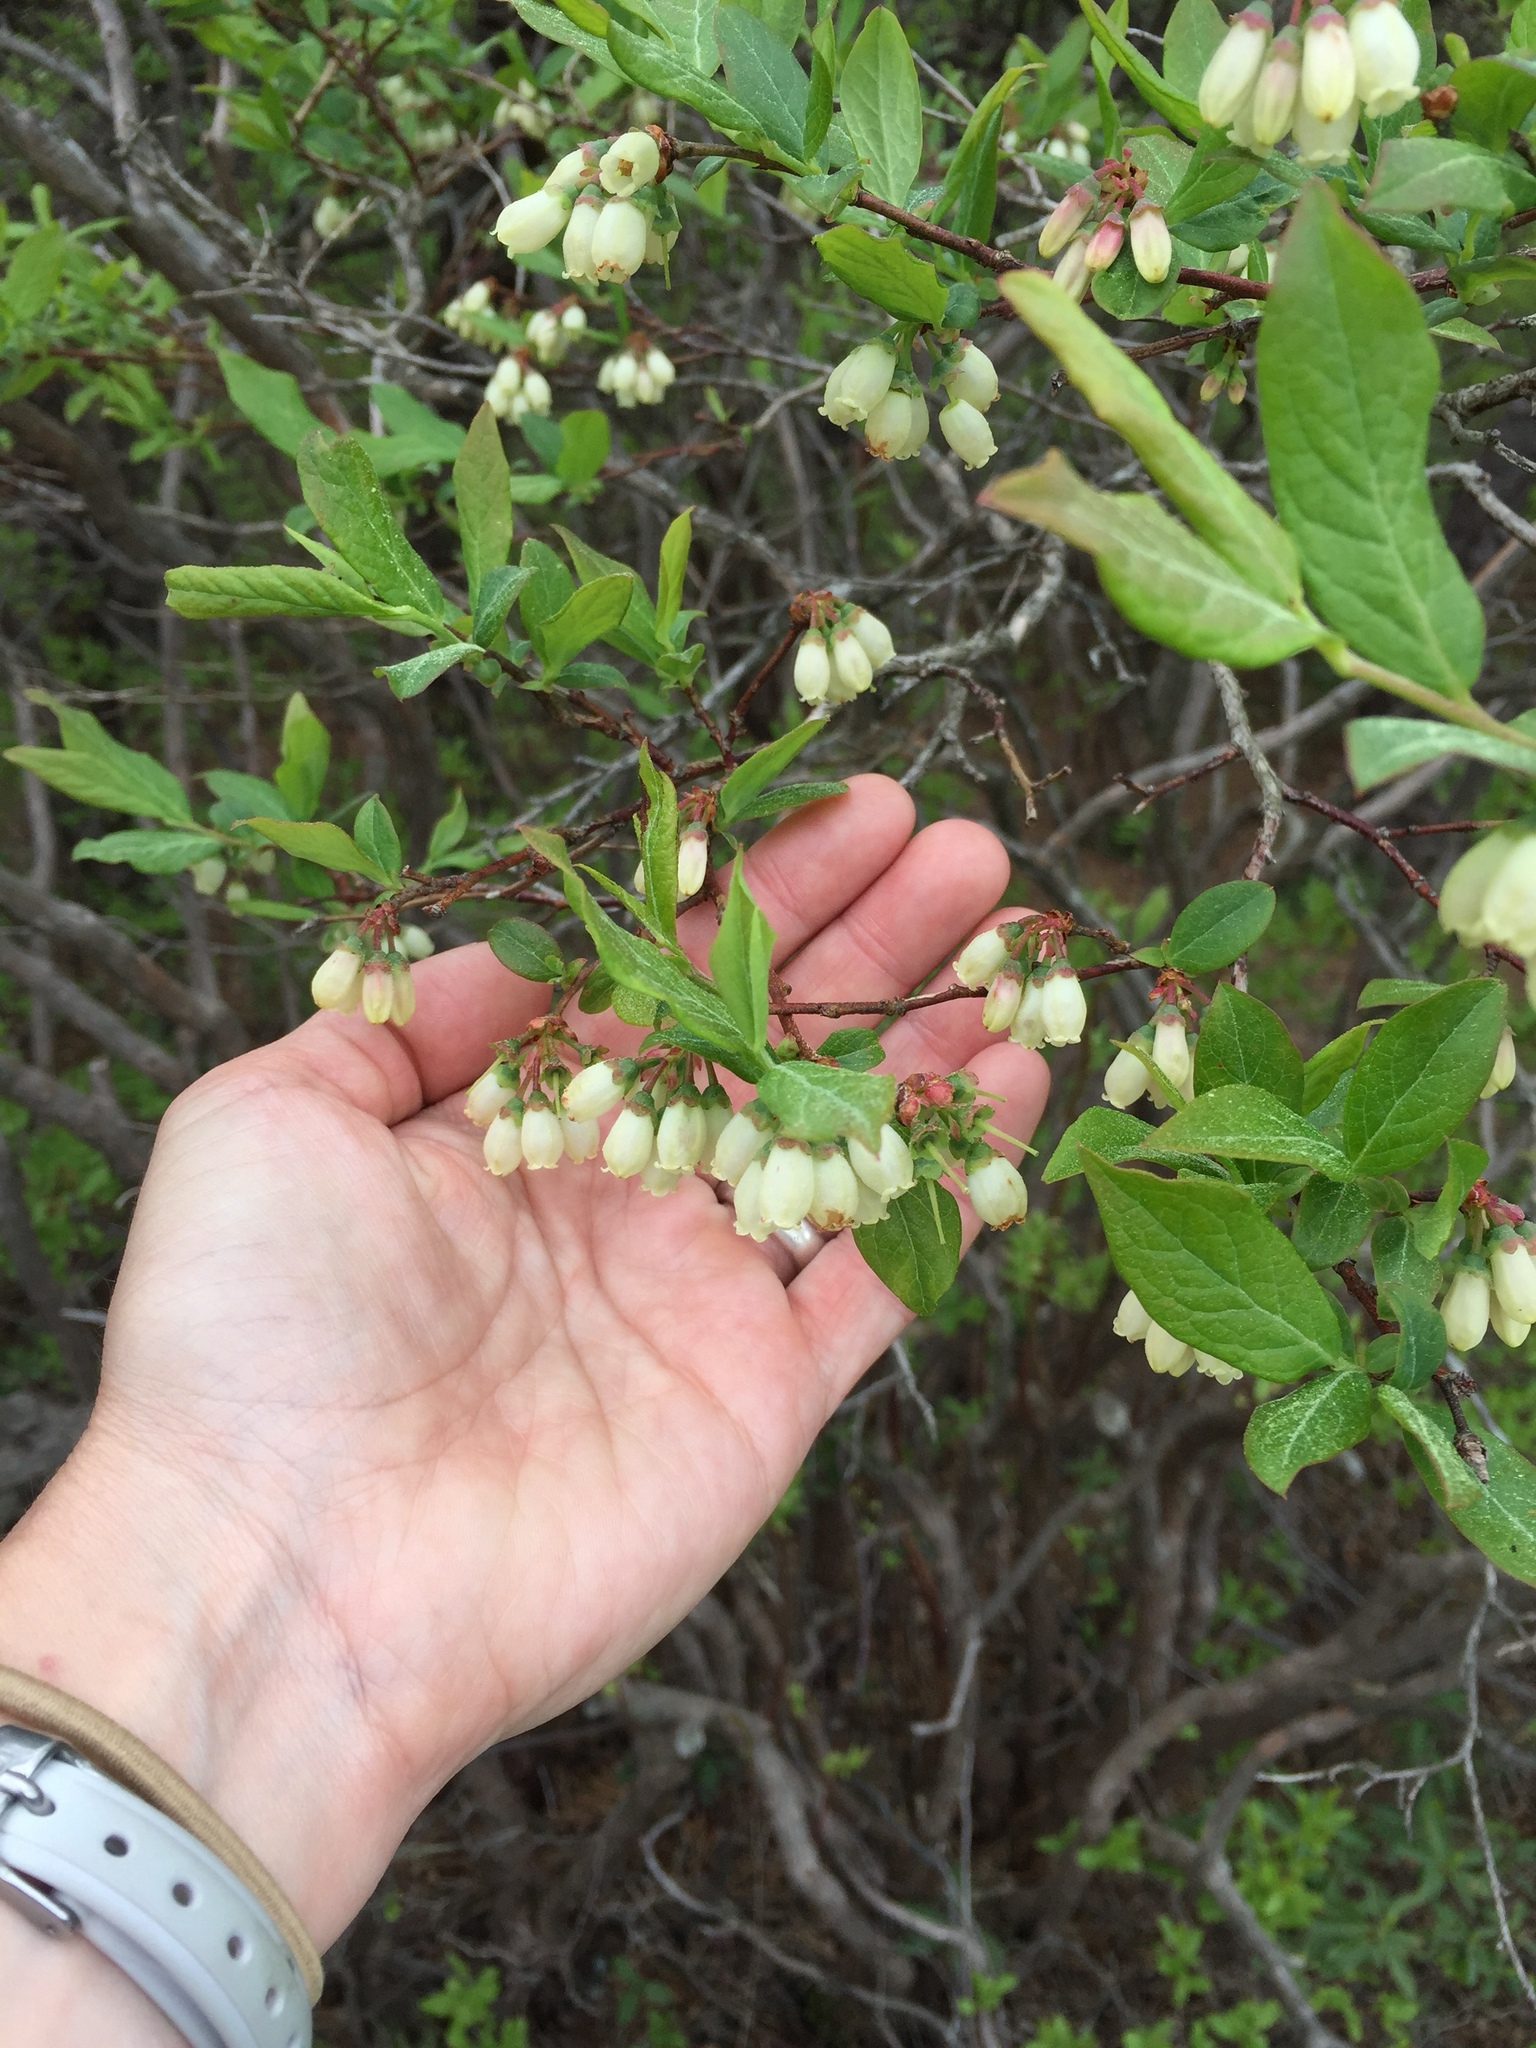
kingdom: Plantae
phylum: Tracheophyta
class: Magnoliopsida
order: Ericales
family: Ericaceae
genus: Vaccinium
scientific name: Vaccinium corymbosum
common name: Blueberry
